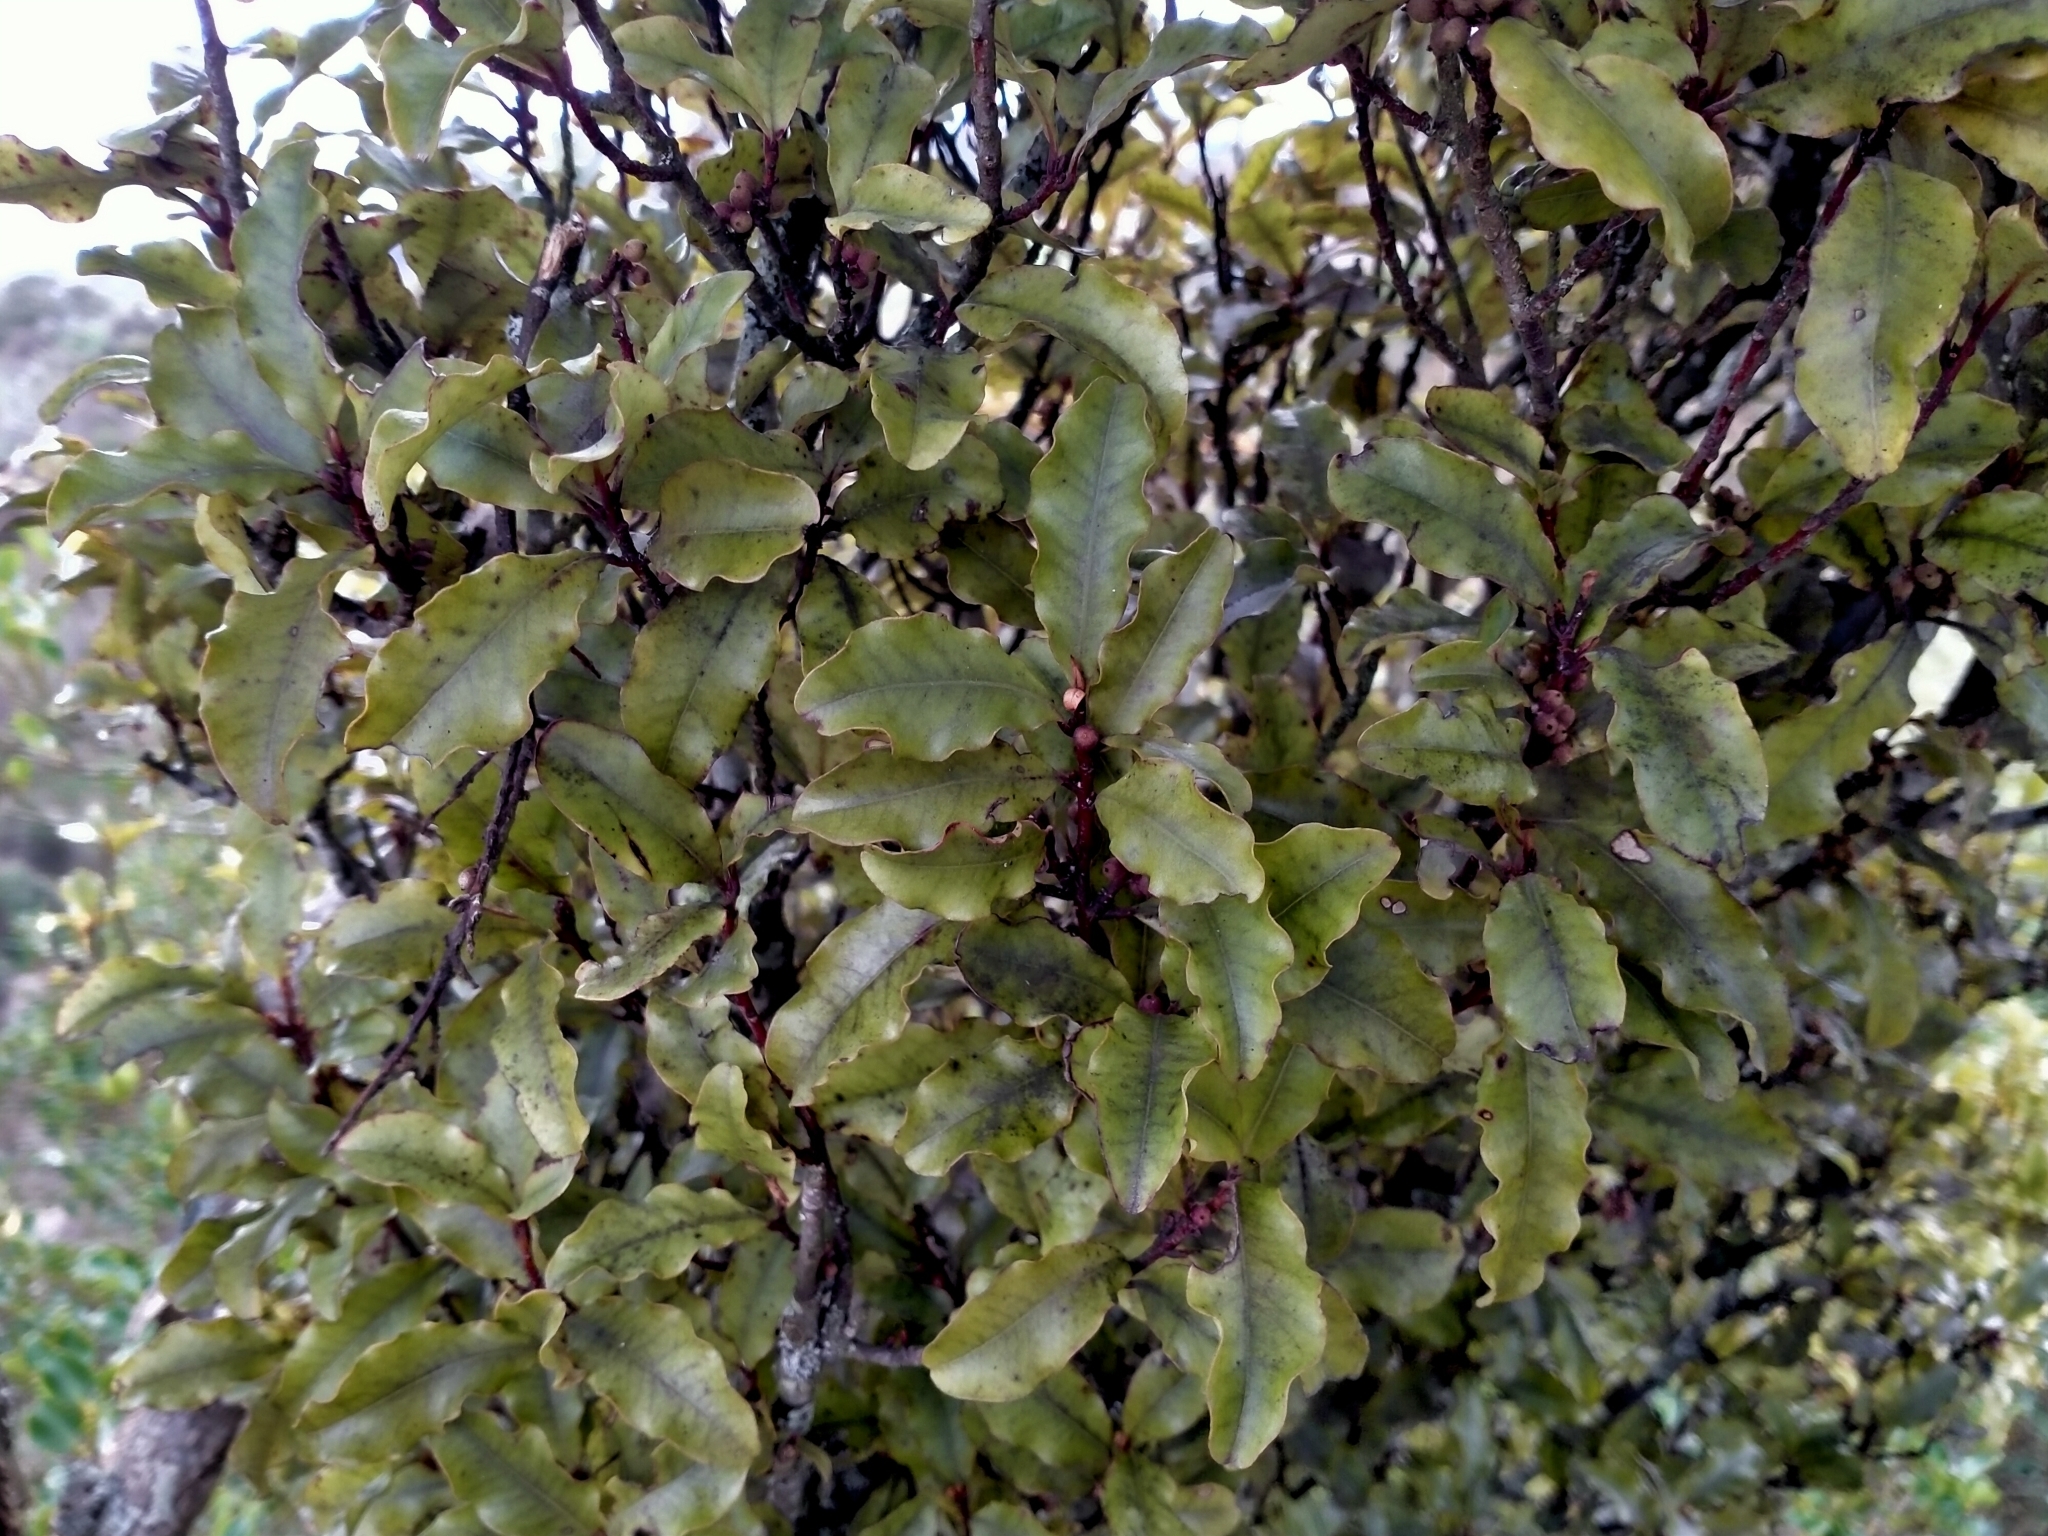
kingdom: Plantae
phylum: Tracheophyta
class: Magnoliopsida
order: Ericales
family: Primulaceae
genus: Myrsine
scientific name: Myrsine australis
